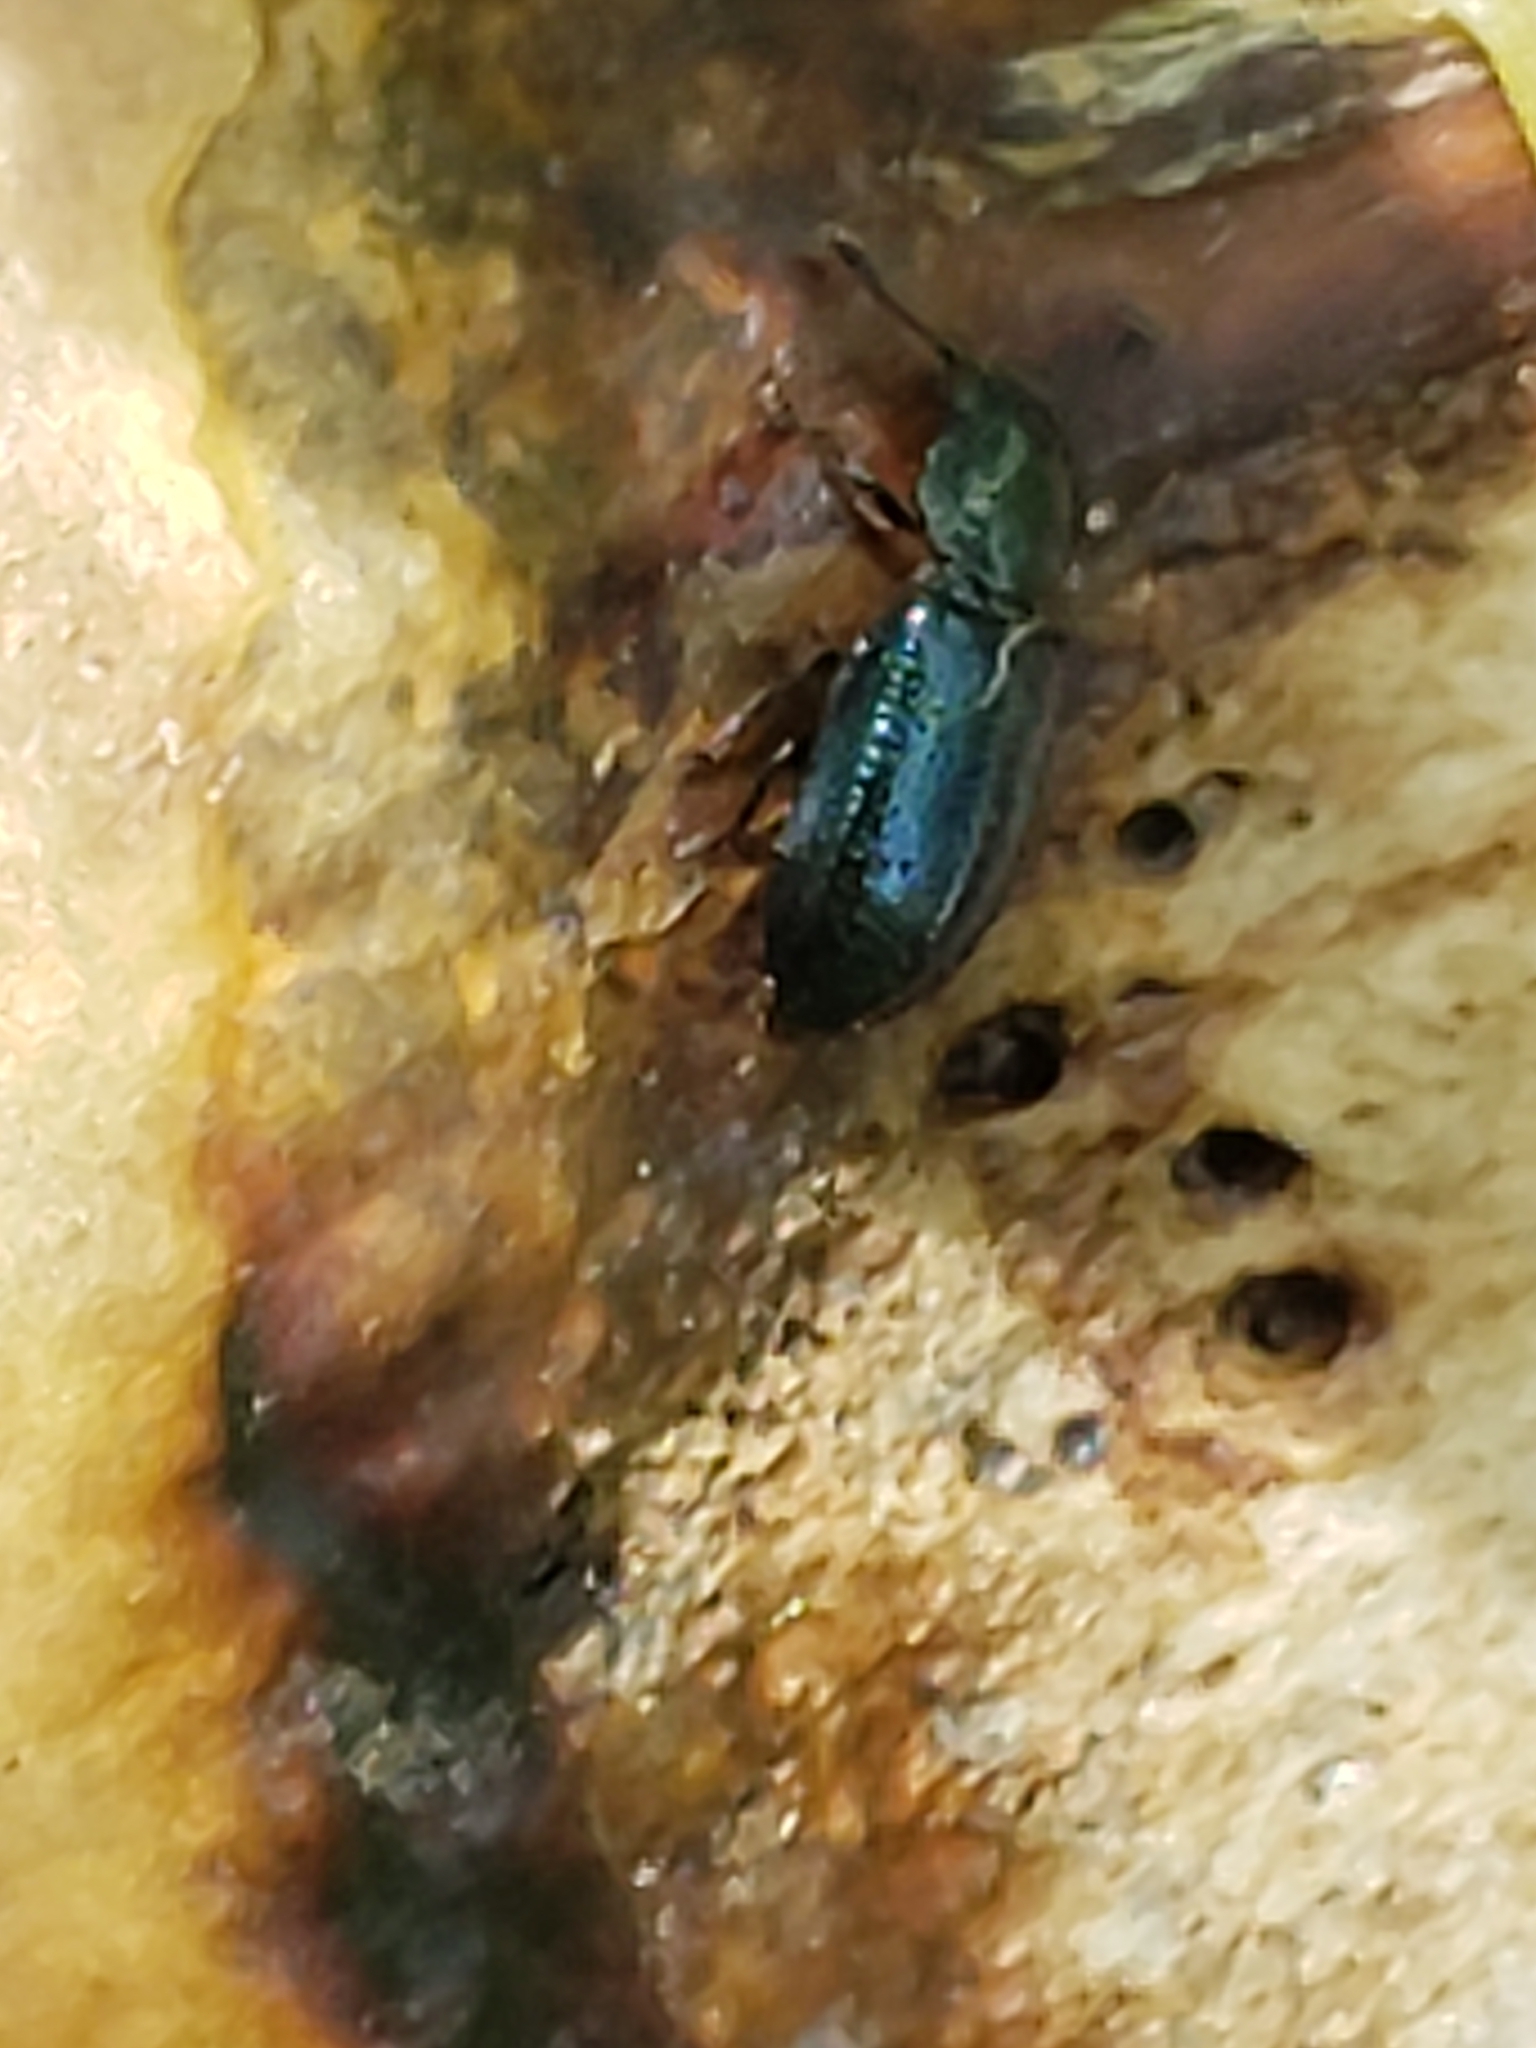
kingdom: Animalia
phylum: Arthropoda
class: Insecta
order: Coleoptera
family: Cleridae
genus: Necrobia
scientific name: Necrobia violacea
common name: Violet checkered beetle
